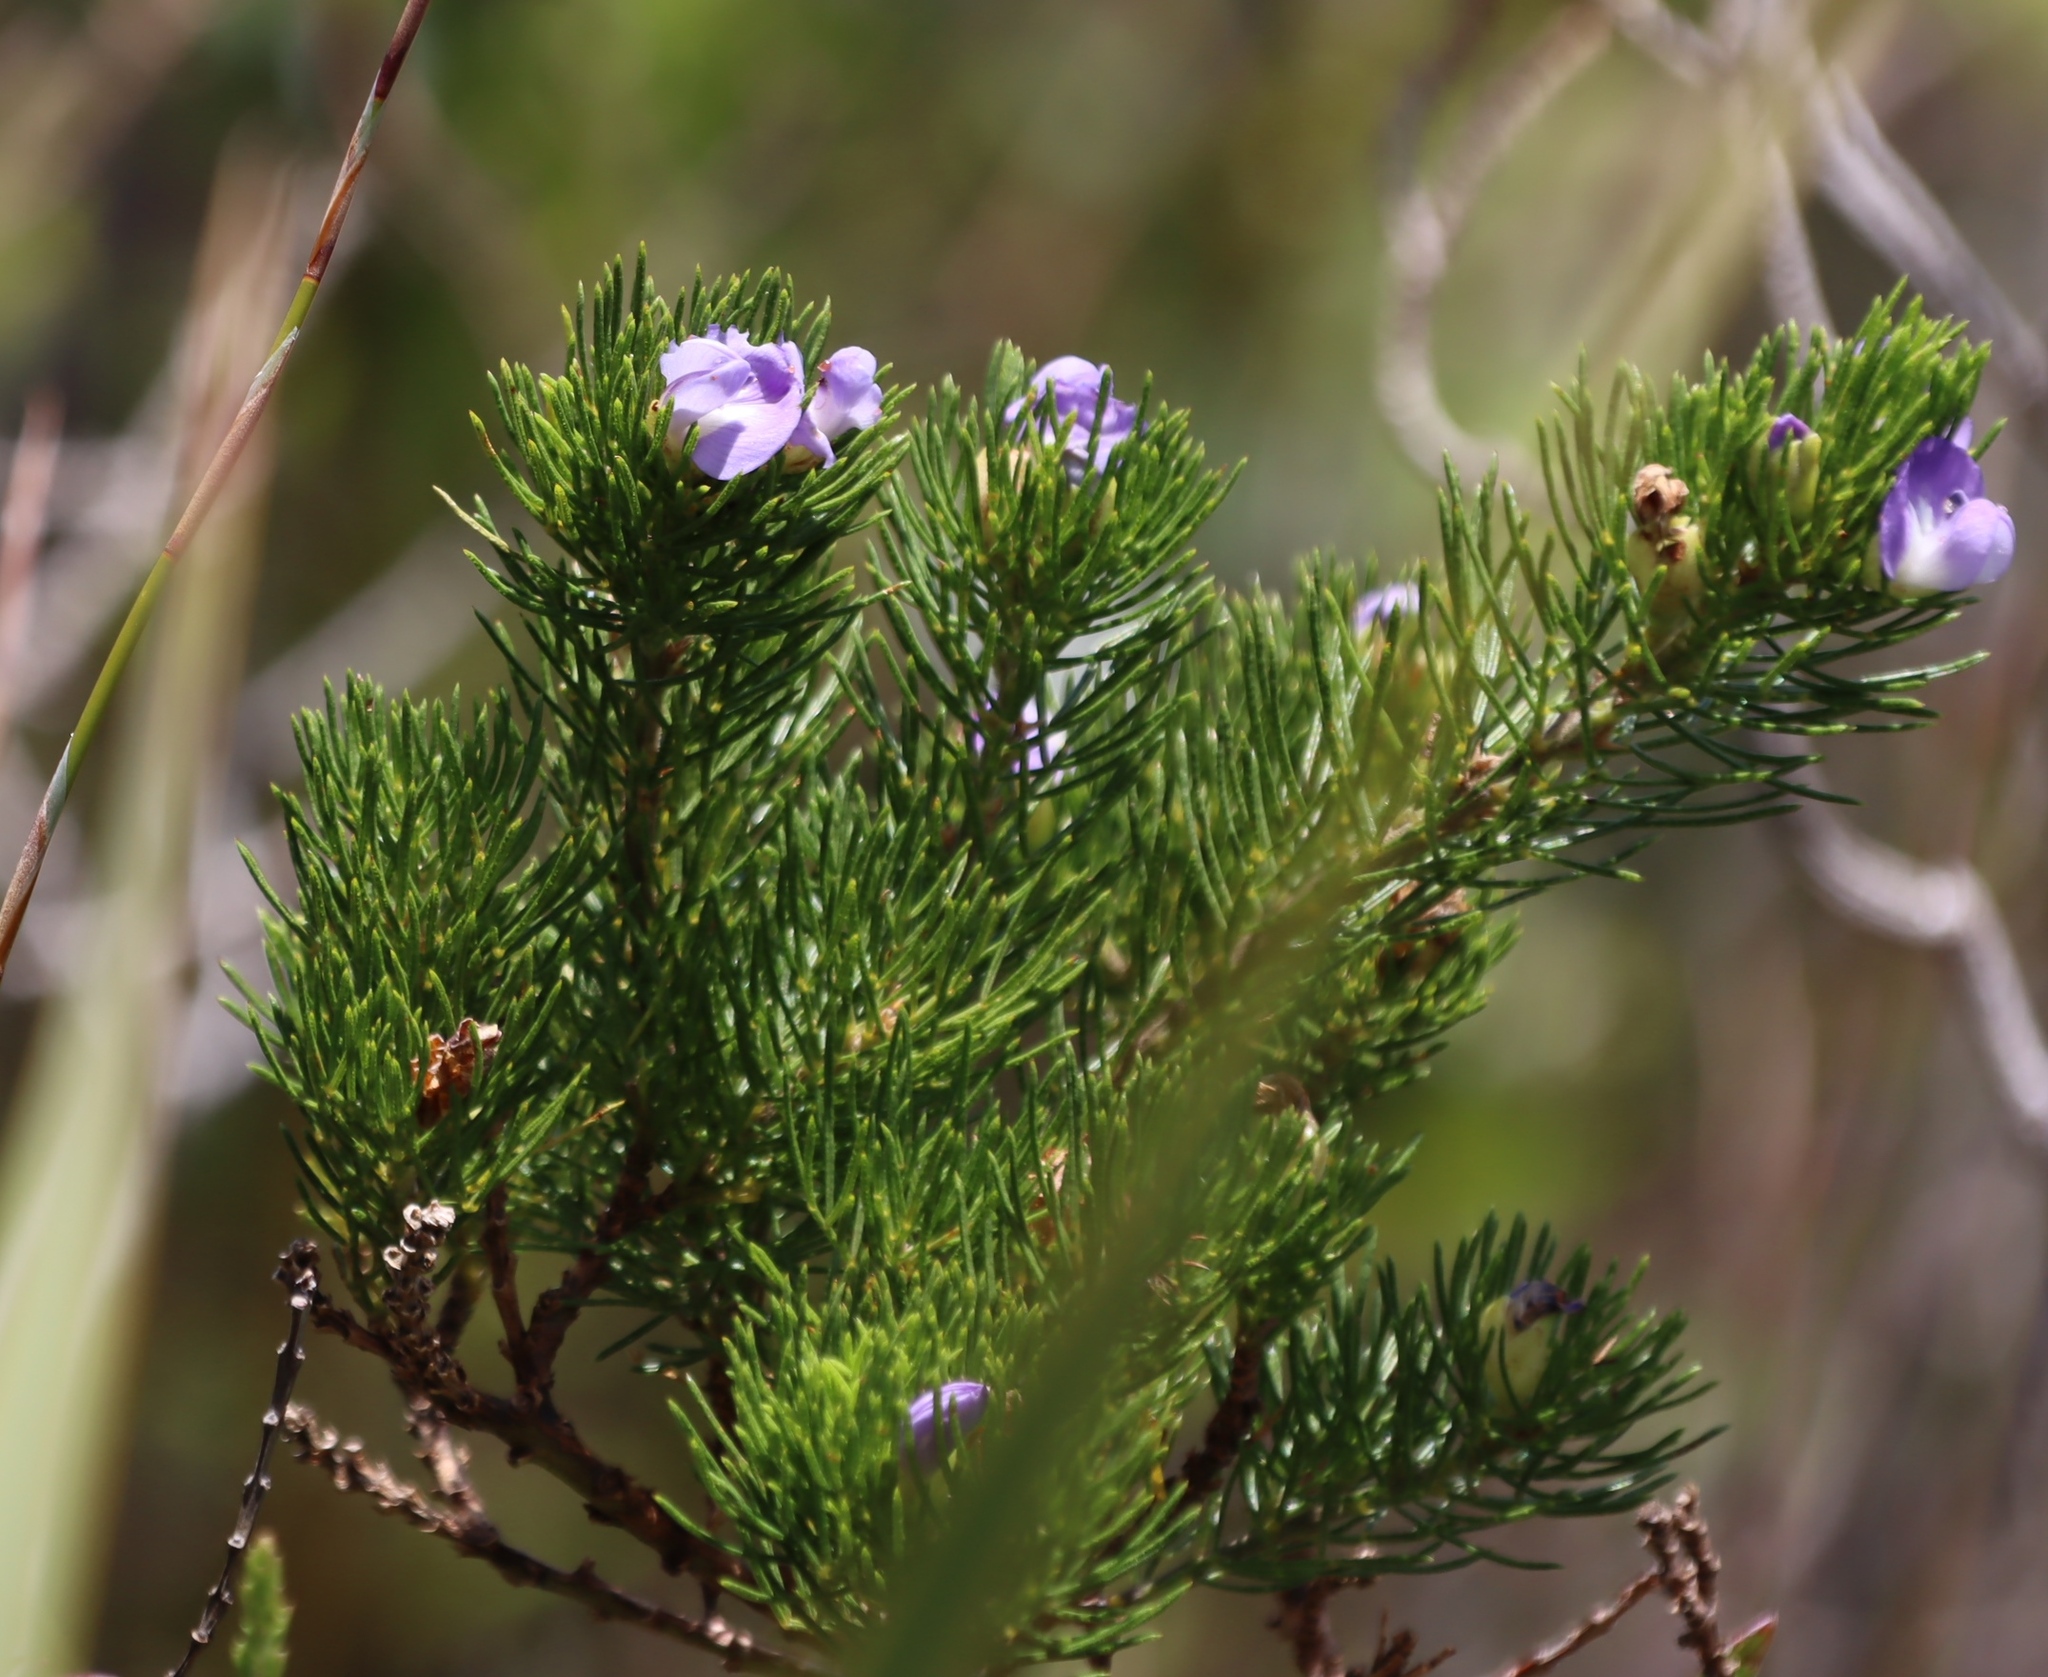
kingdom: Plantae
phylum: Tracheophyta
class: Magnoliopsida
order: Fabales
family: Fabaceae
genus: Psoralea
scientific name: Psoralea speciosa
